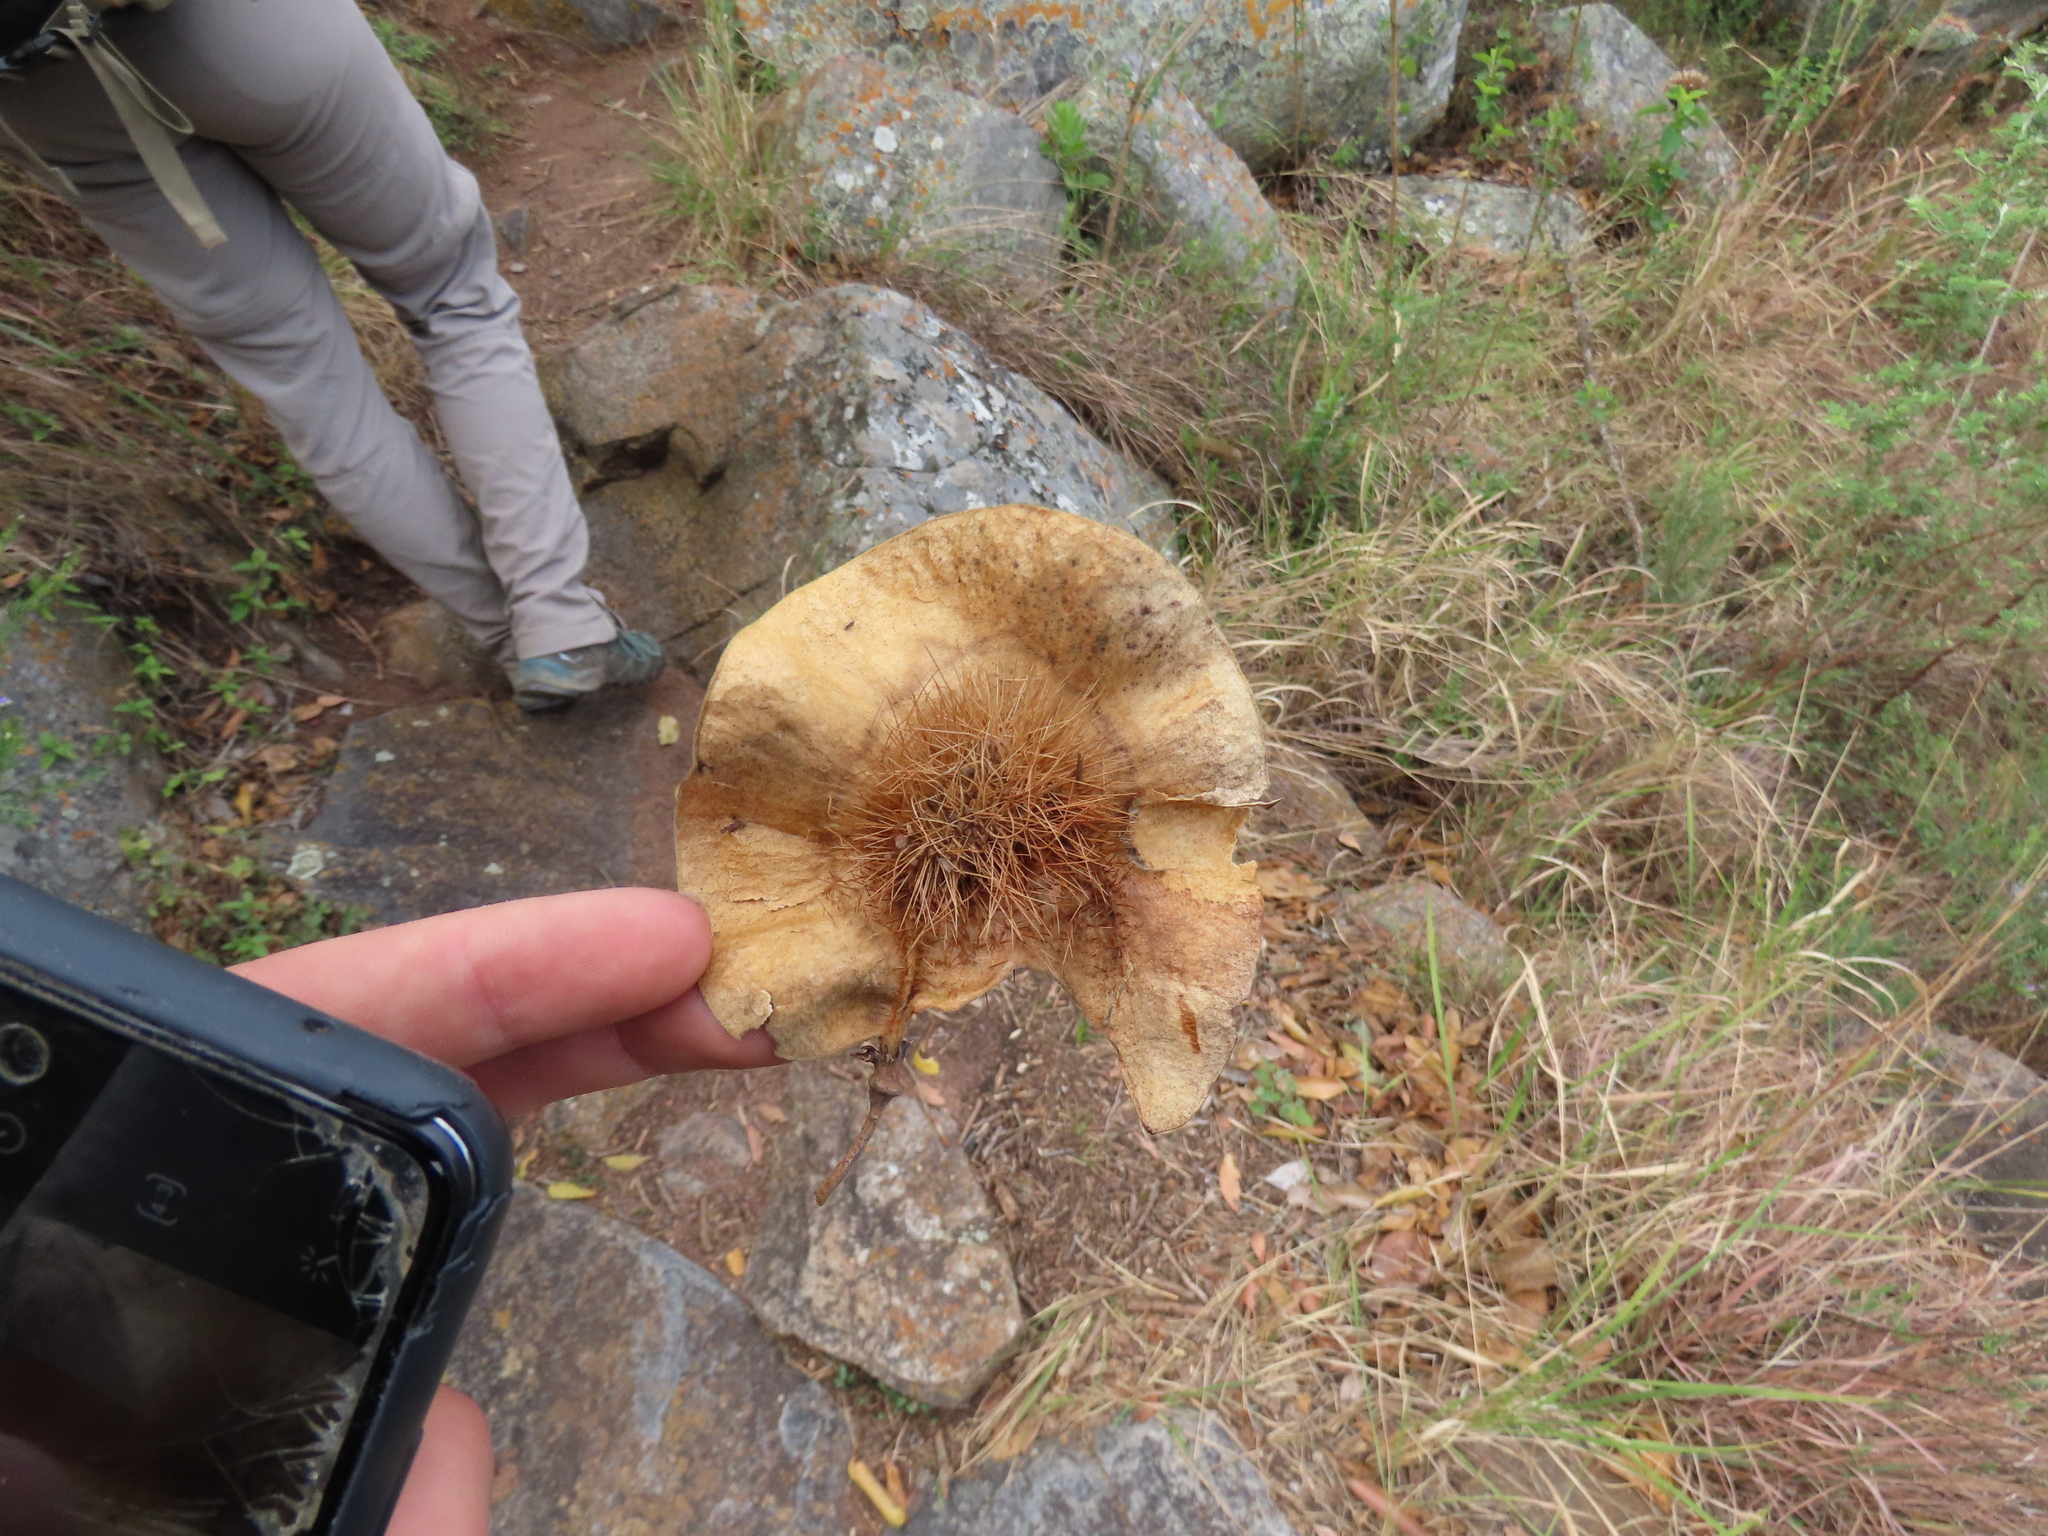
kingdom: Plantae
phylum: Tracheophyta
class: Magnoliopsida
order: Fabales
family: Fabaceae
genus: Pterocarpus
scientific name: Pterocarpus angolensis
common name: Bloodwood tree
